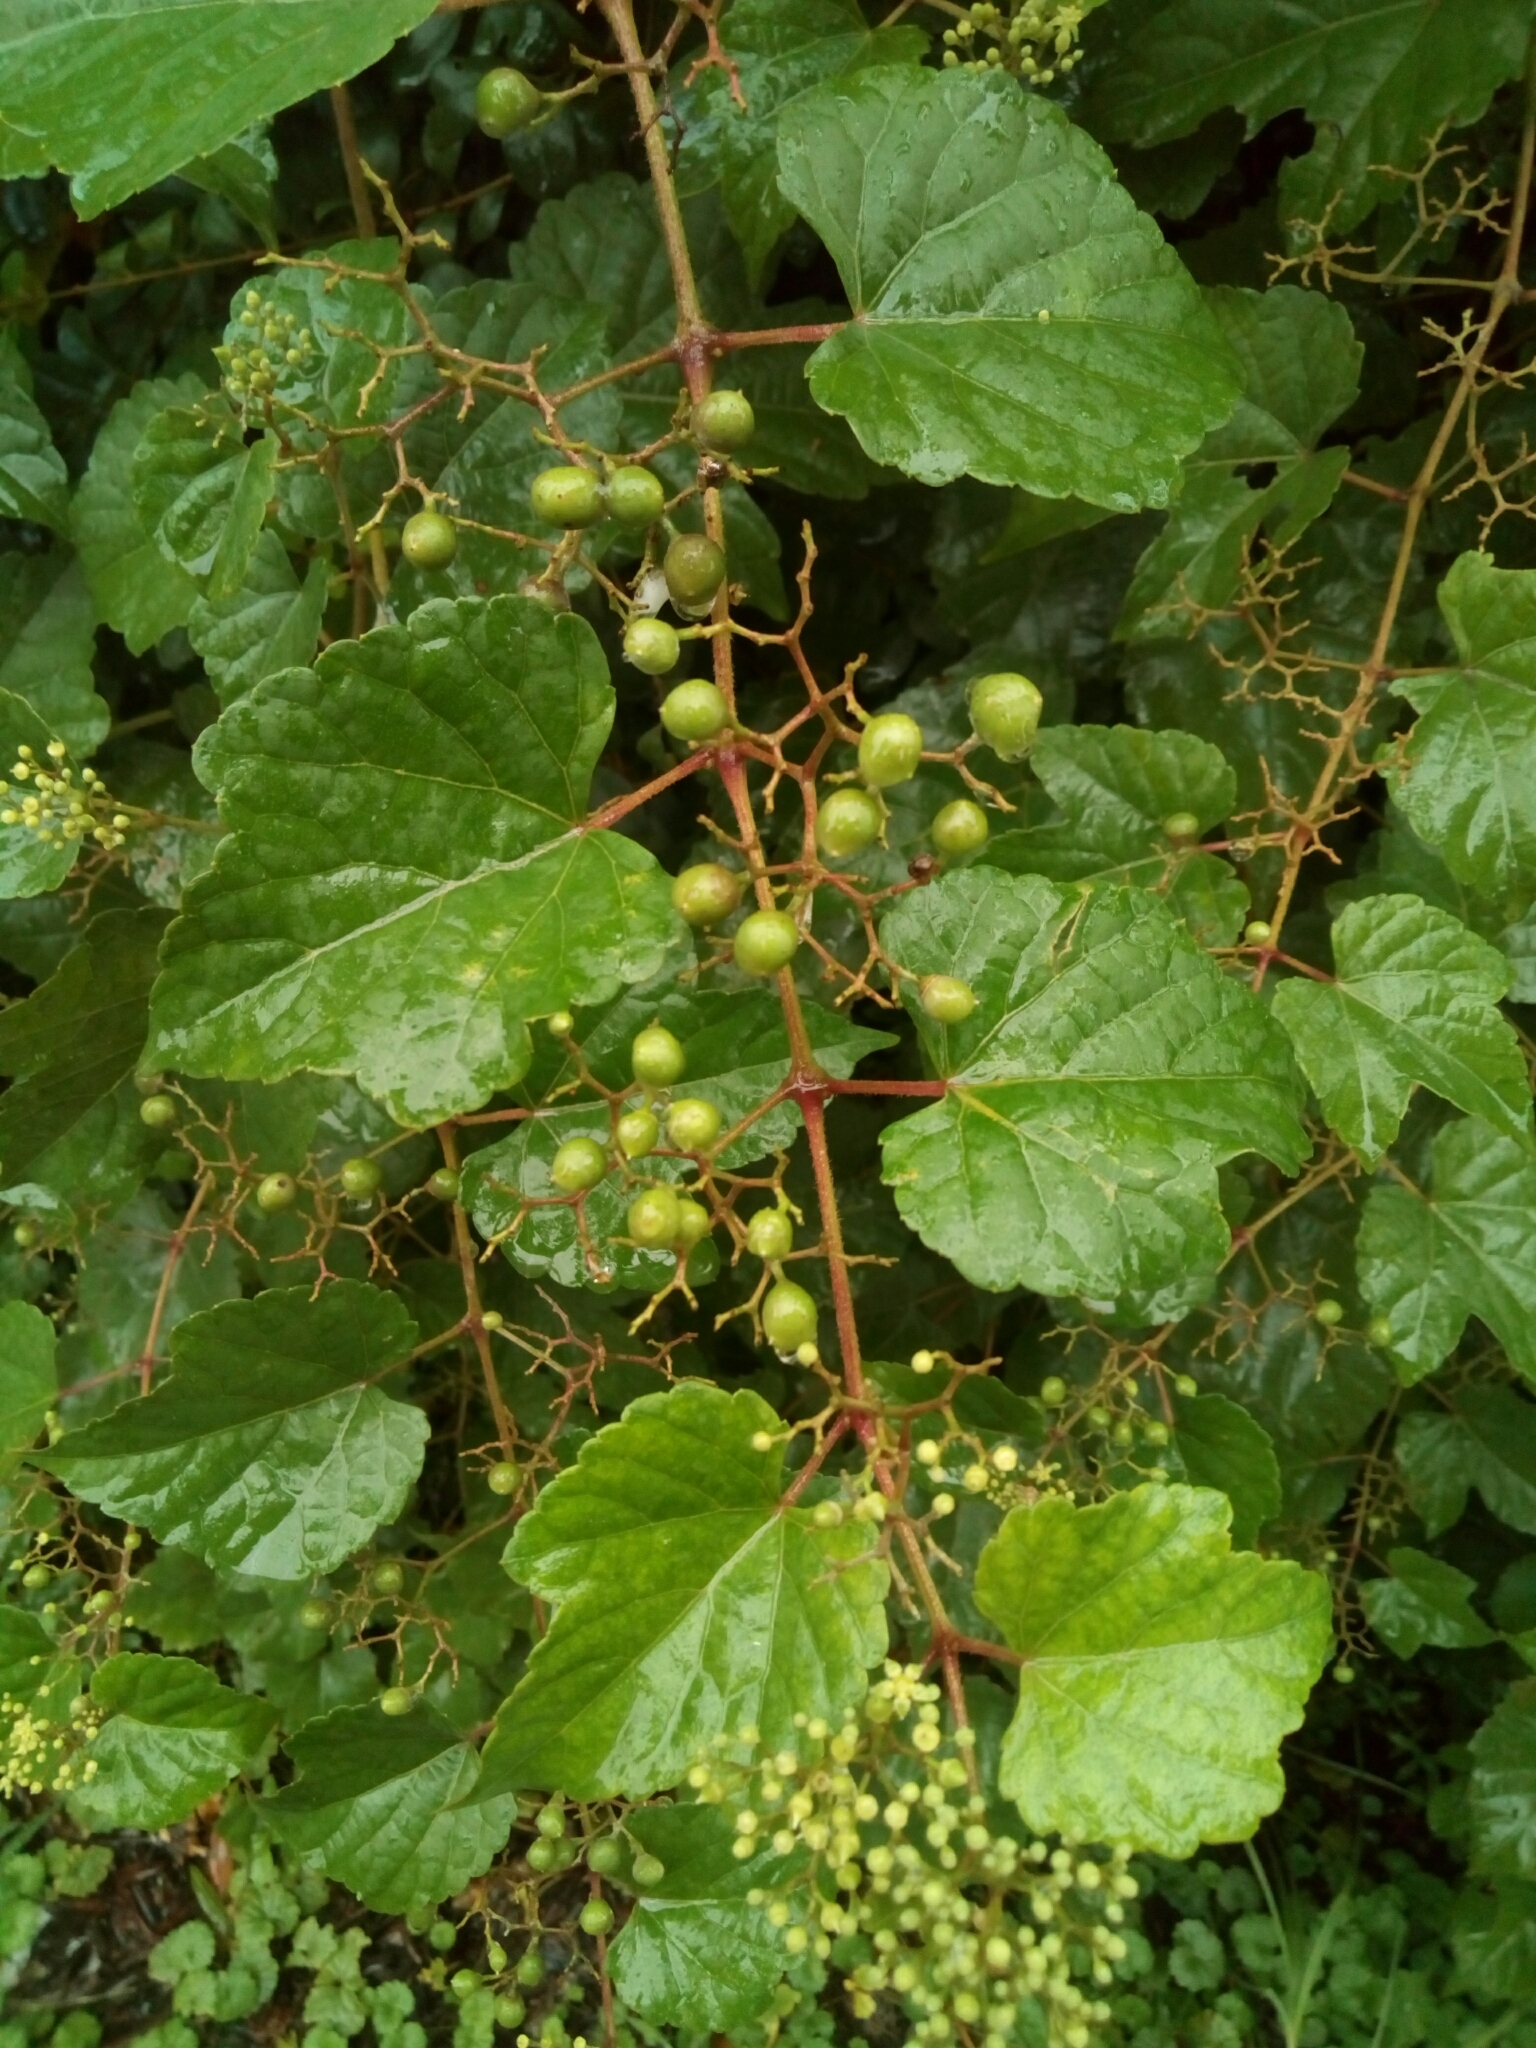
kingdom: Plantae
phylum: Tracheophyta
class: Magnoliopsida
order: Vitales
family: Vitaceae
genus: Ampelopsis
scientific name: Ampelopsis glandulosa
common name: Amur peppervine
